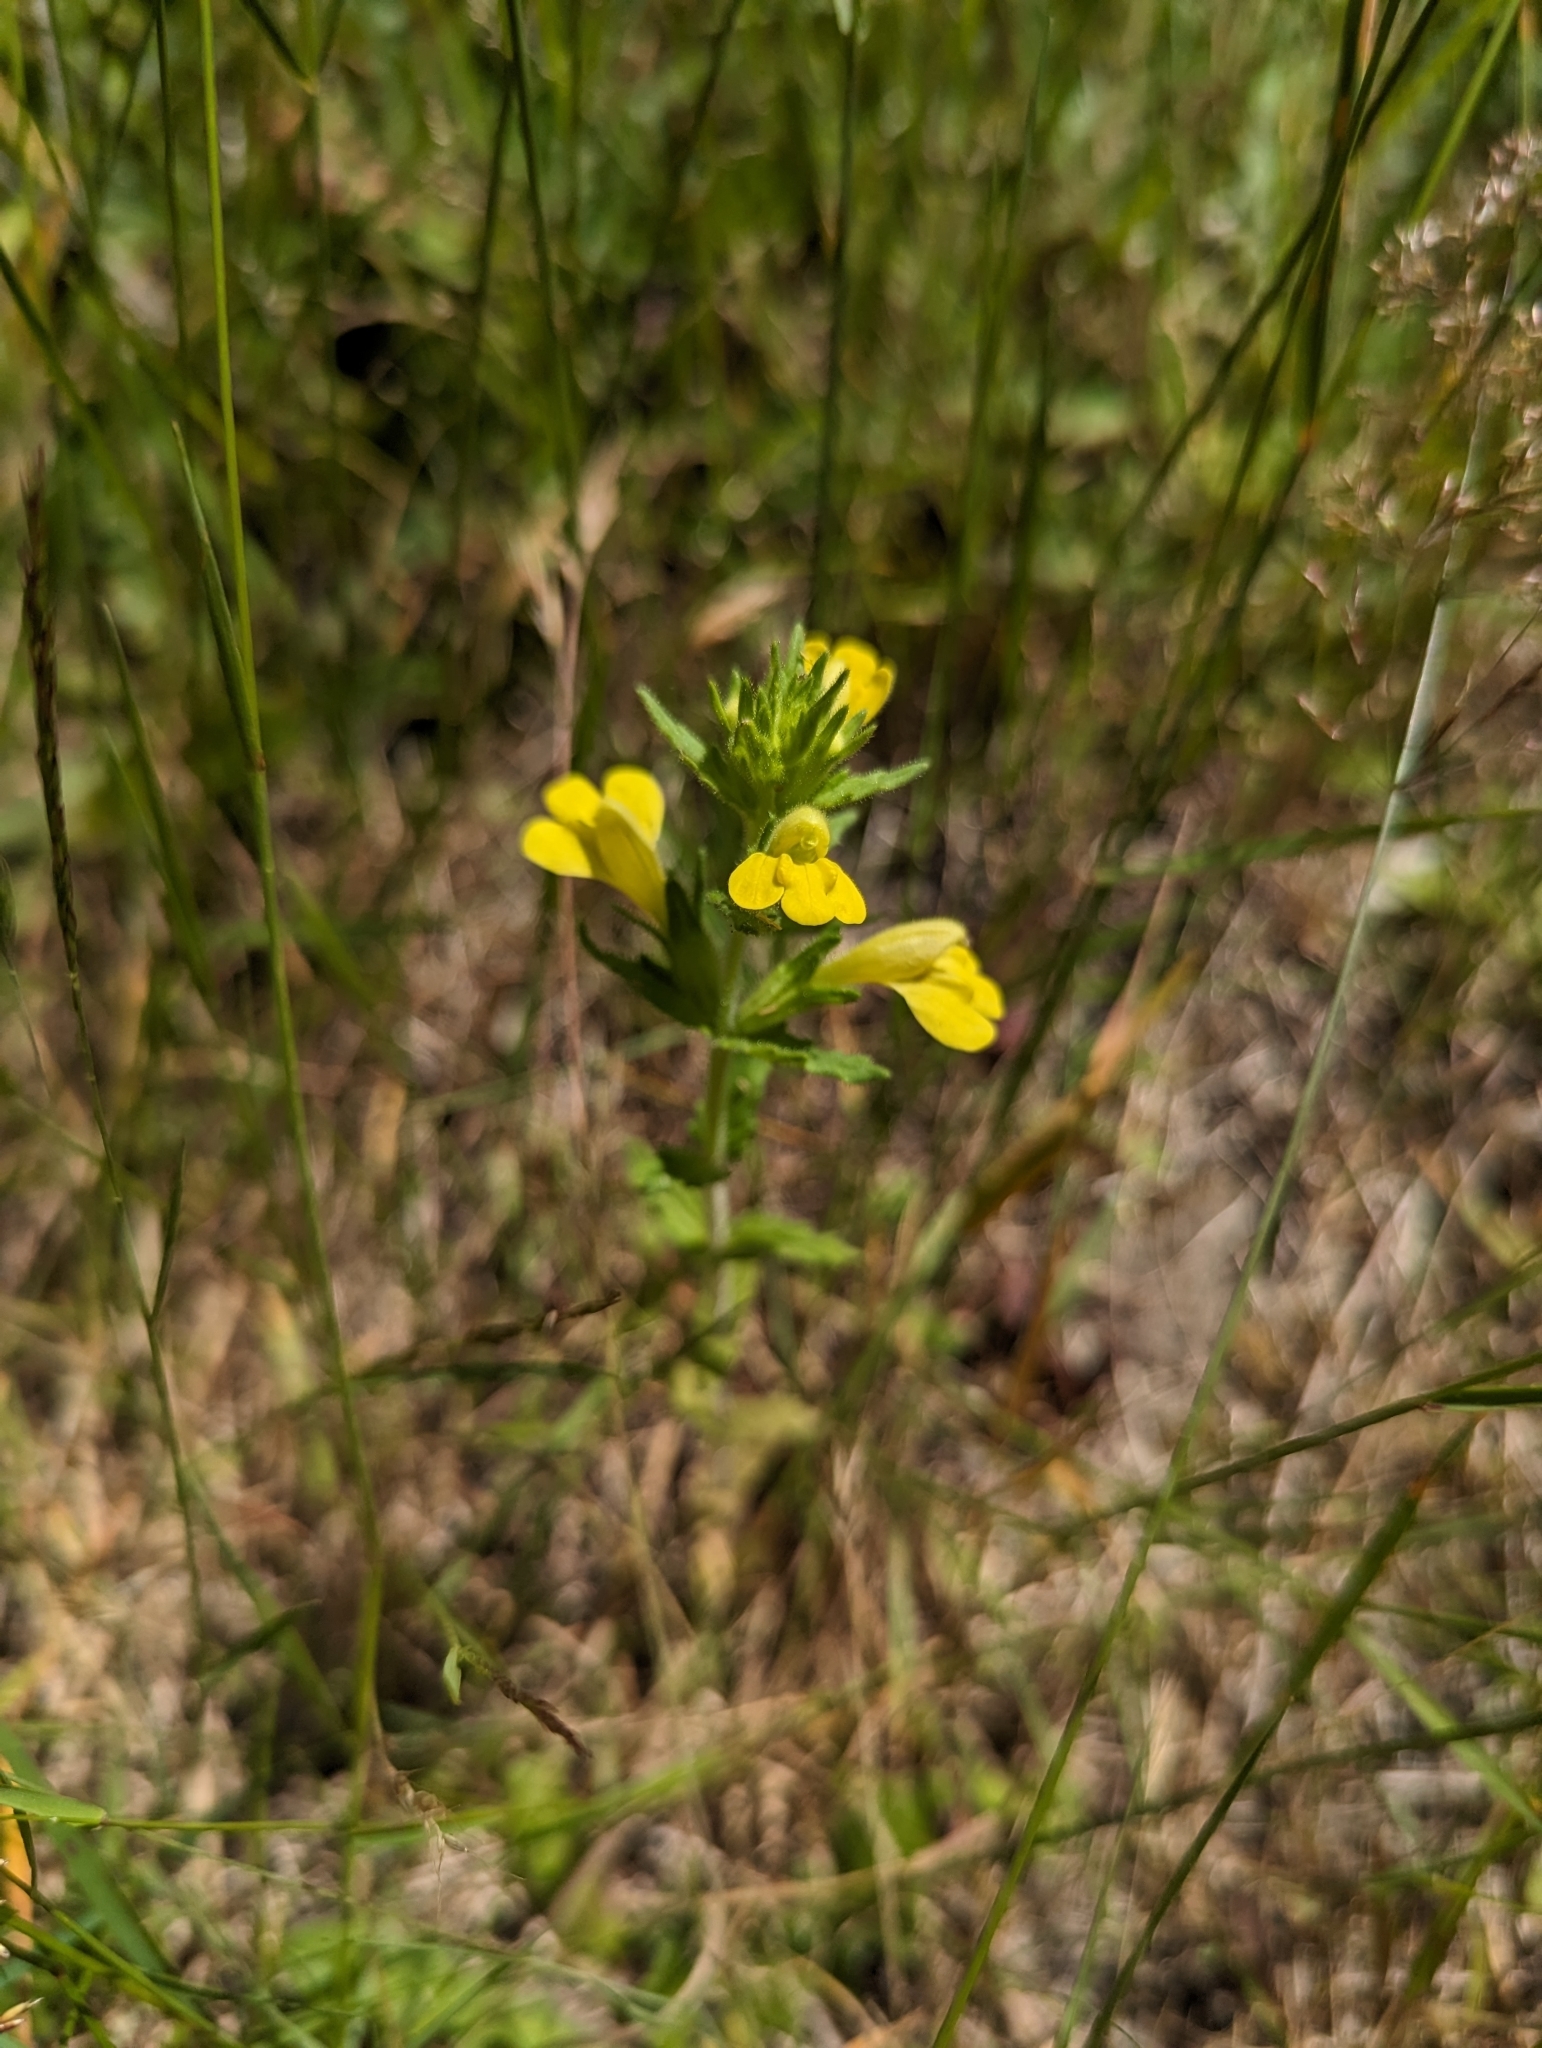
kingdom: Plantae
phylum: Tracheophyta
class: Magnoliopsida
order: Lamiales
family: Orobanchaceae
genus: Bellardia
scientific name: Bellardia viscosa
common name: Sticky parentucellia
